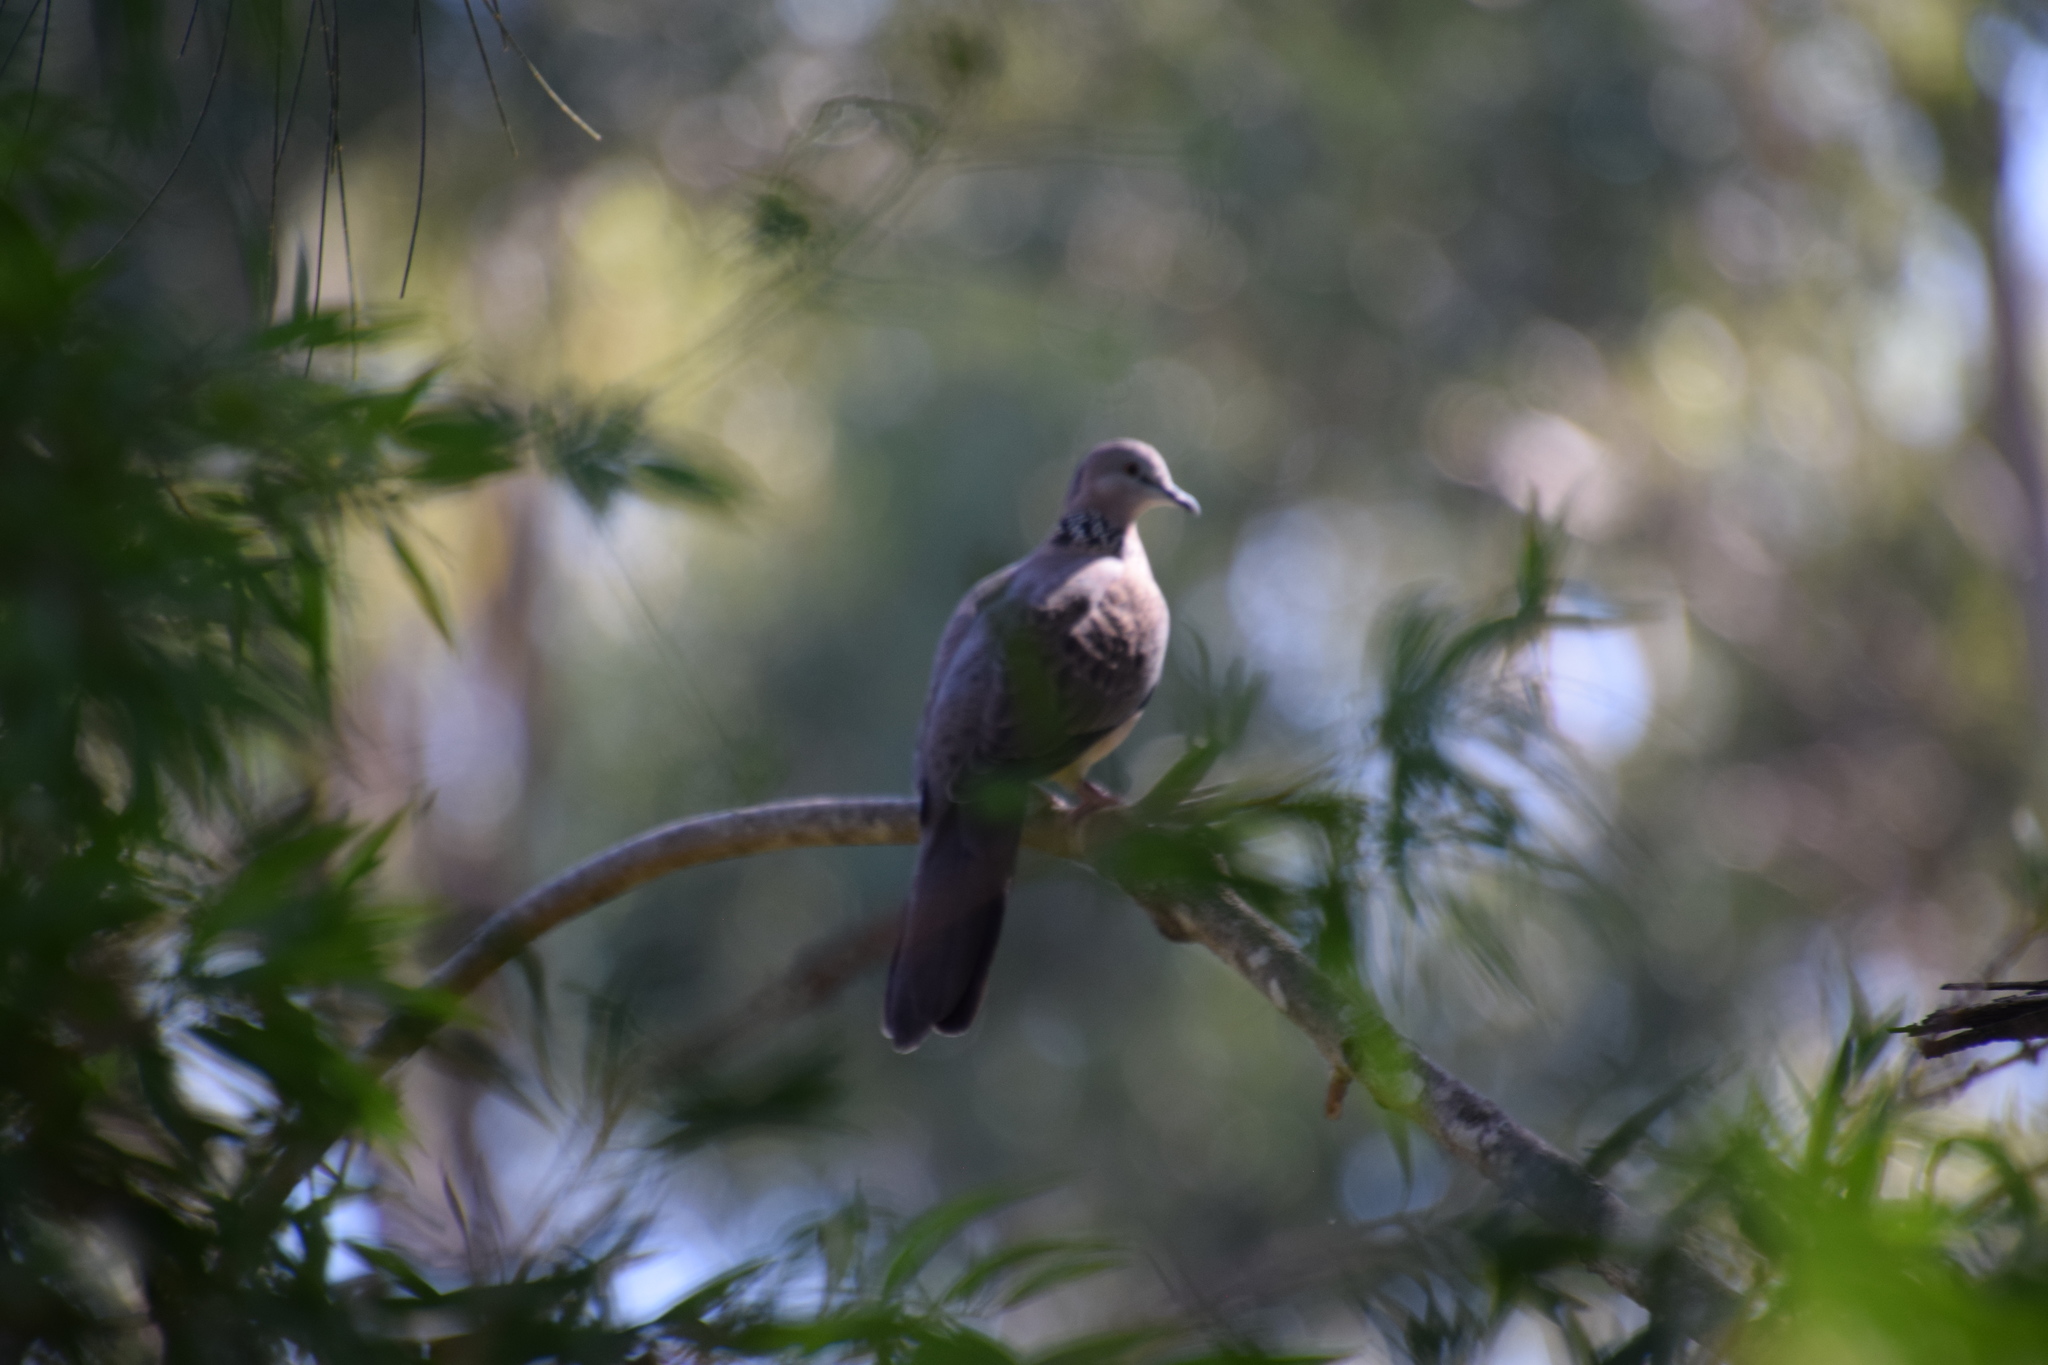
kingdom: Animalia
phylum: Chordata
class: Aves
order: Columbiformes
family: Columbidae
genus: Spilopelia
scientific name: Spilopelia chinensis
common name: Spotted dove
